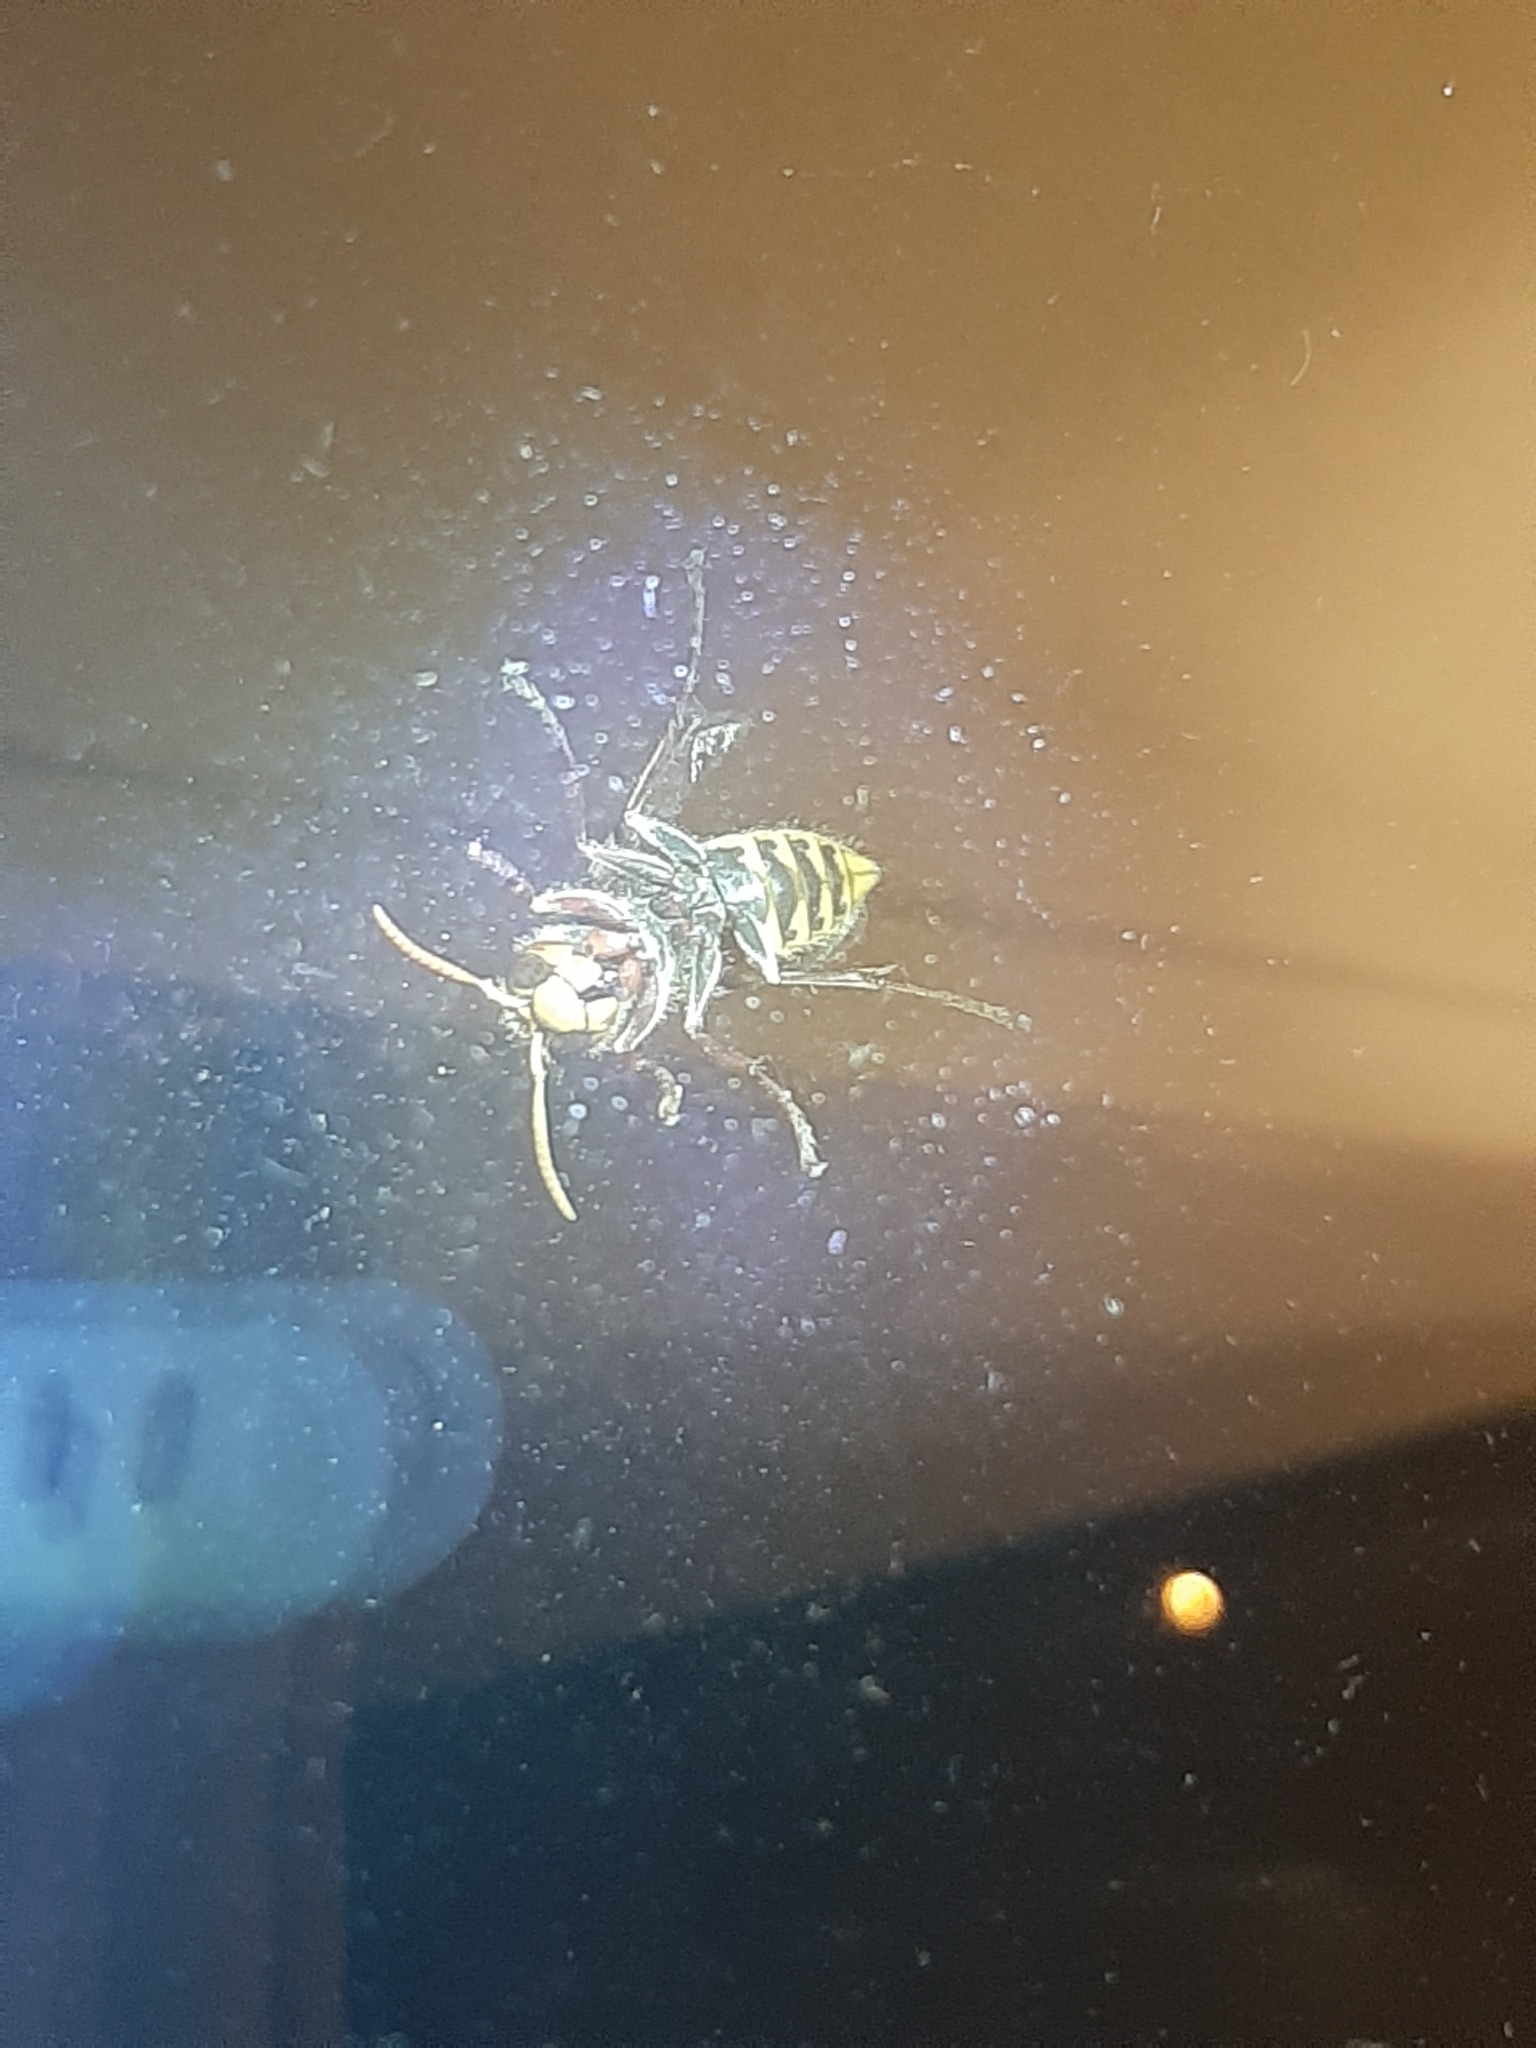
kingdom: Animalia
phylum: Arthropoda
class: Insecta
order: Hymenoptera
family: Vespidae
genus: Vespa
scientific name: Vespa crabro
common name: Hornet
